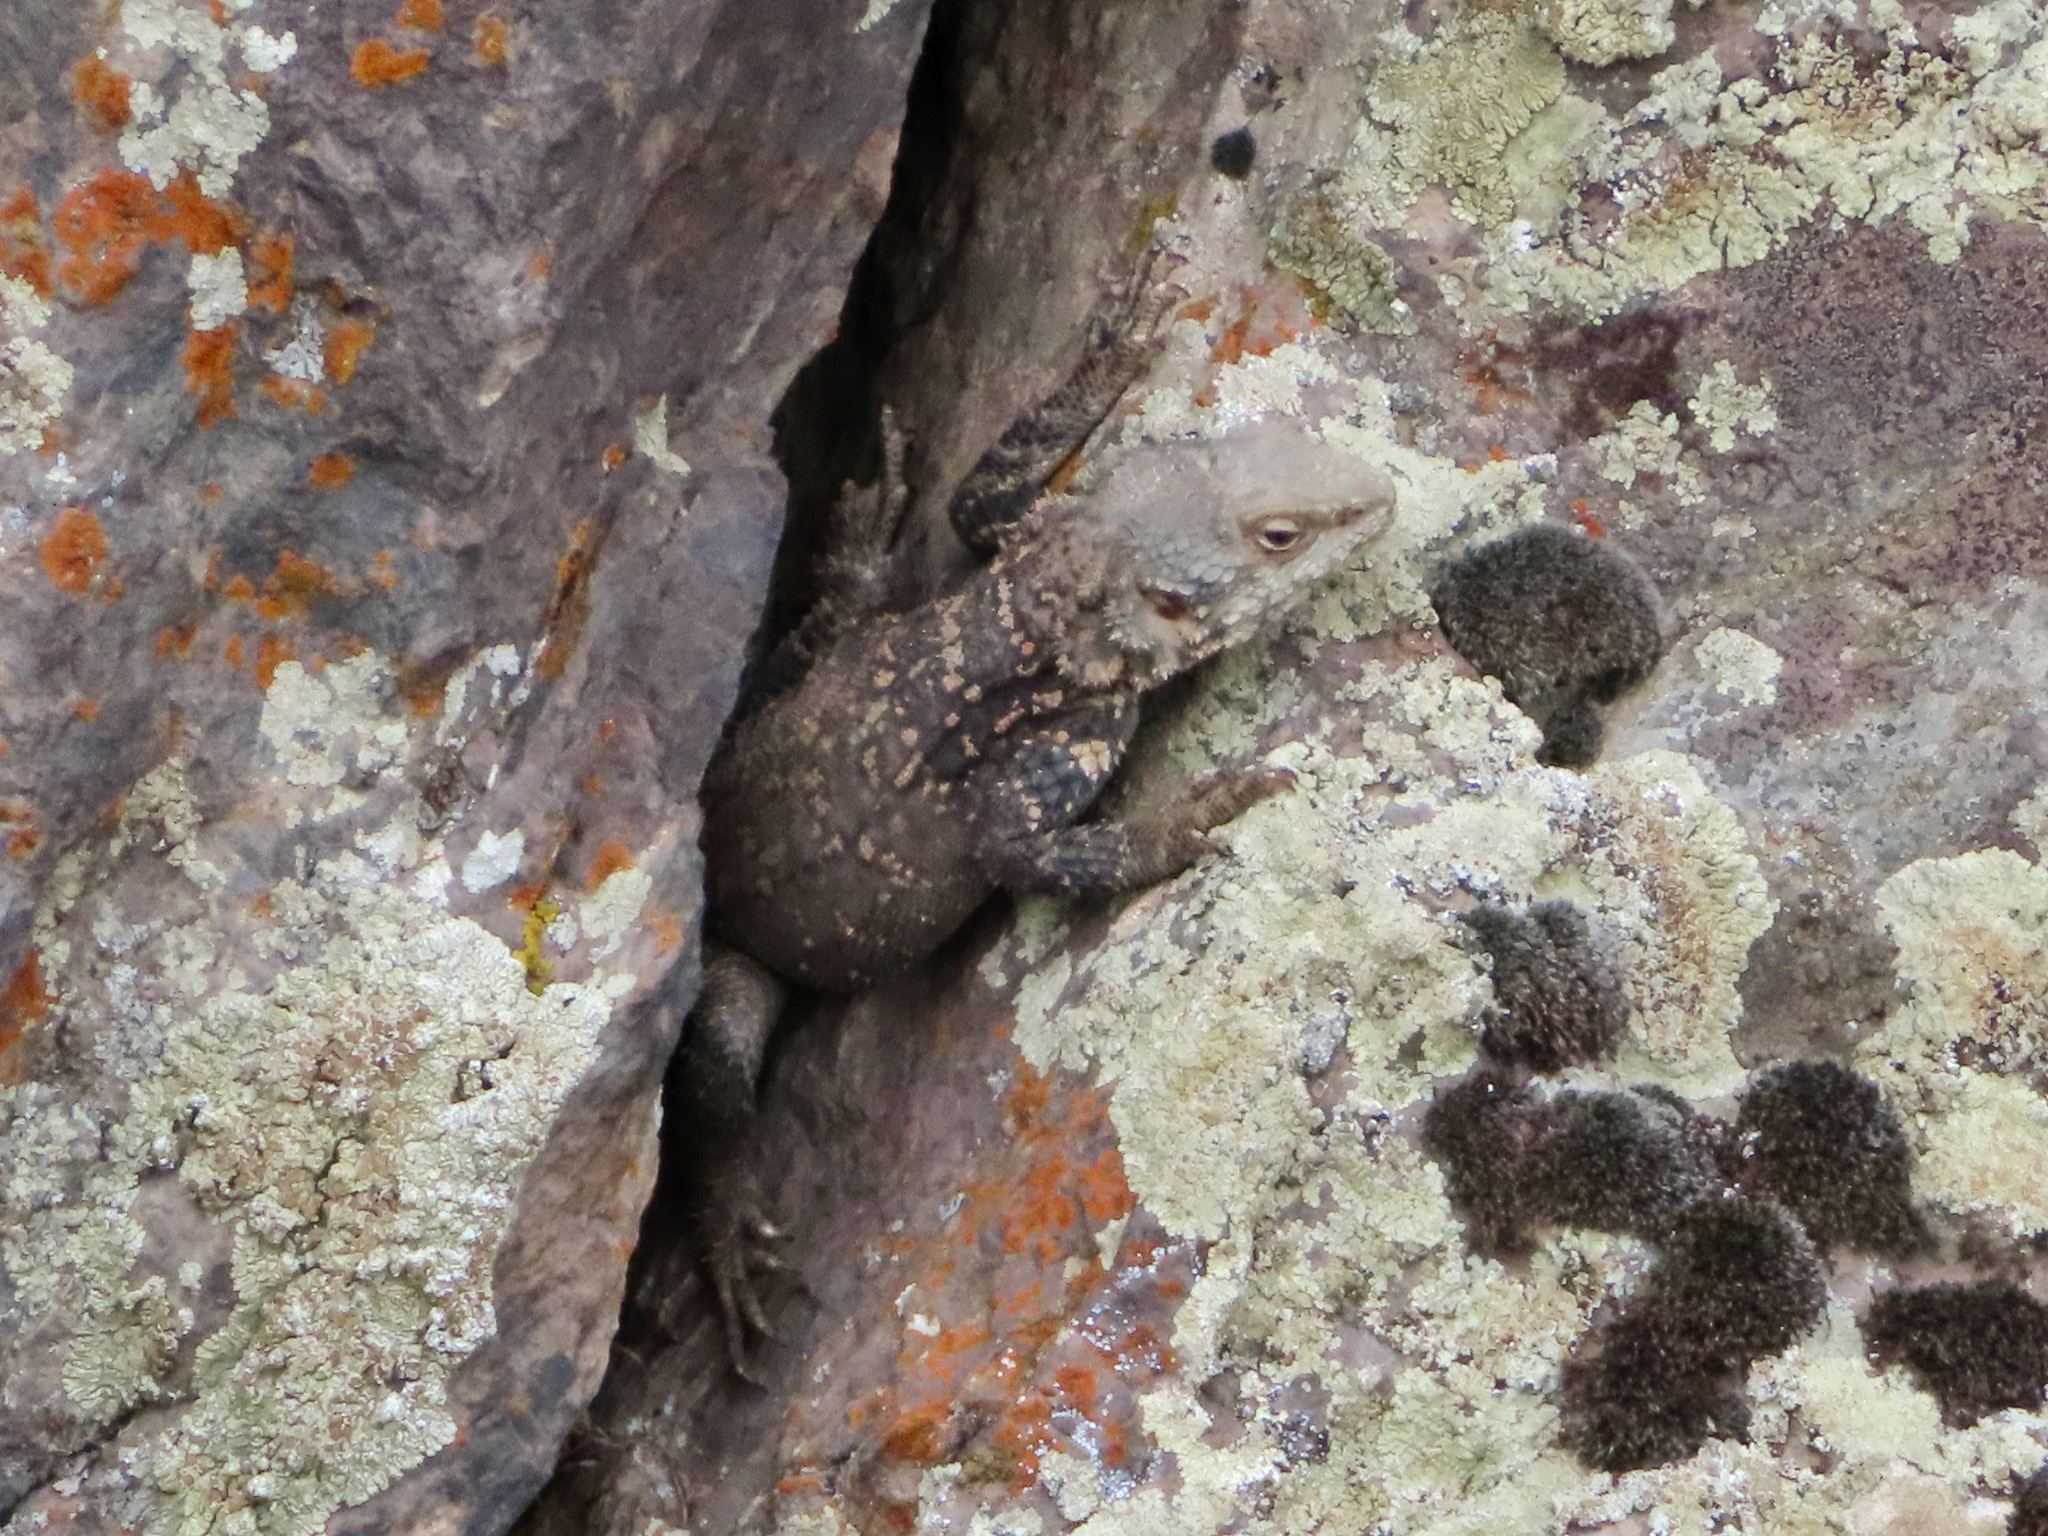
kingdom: Animalia
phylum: Chordata
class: Squamata
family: Agamidae
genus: Paralaudakia
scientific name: Paralaudakia caucasia
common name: Caucasian agama
